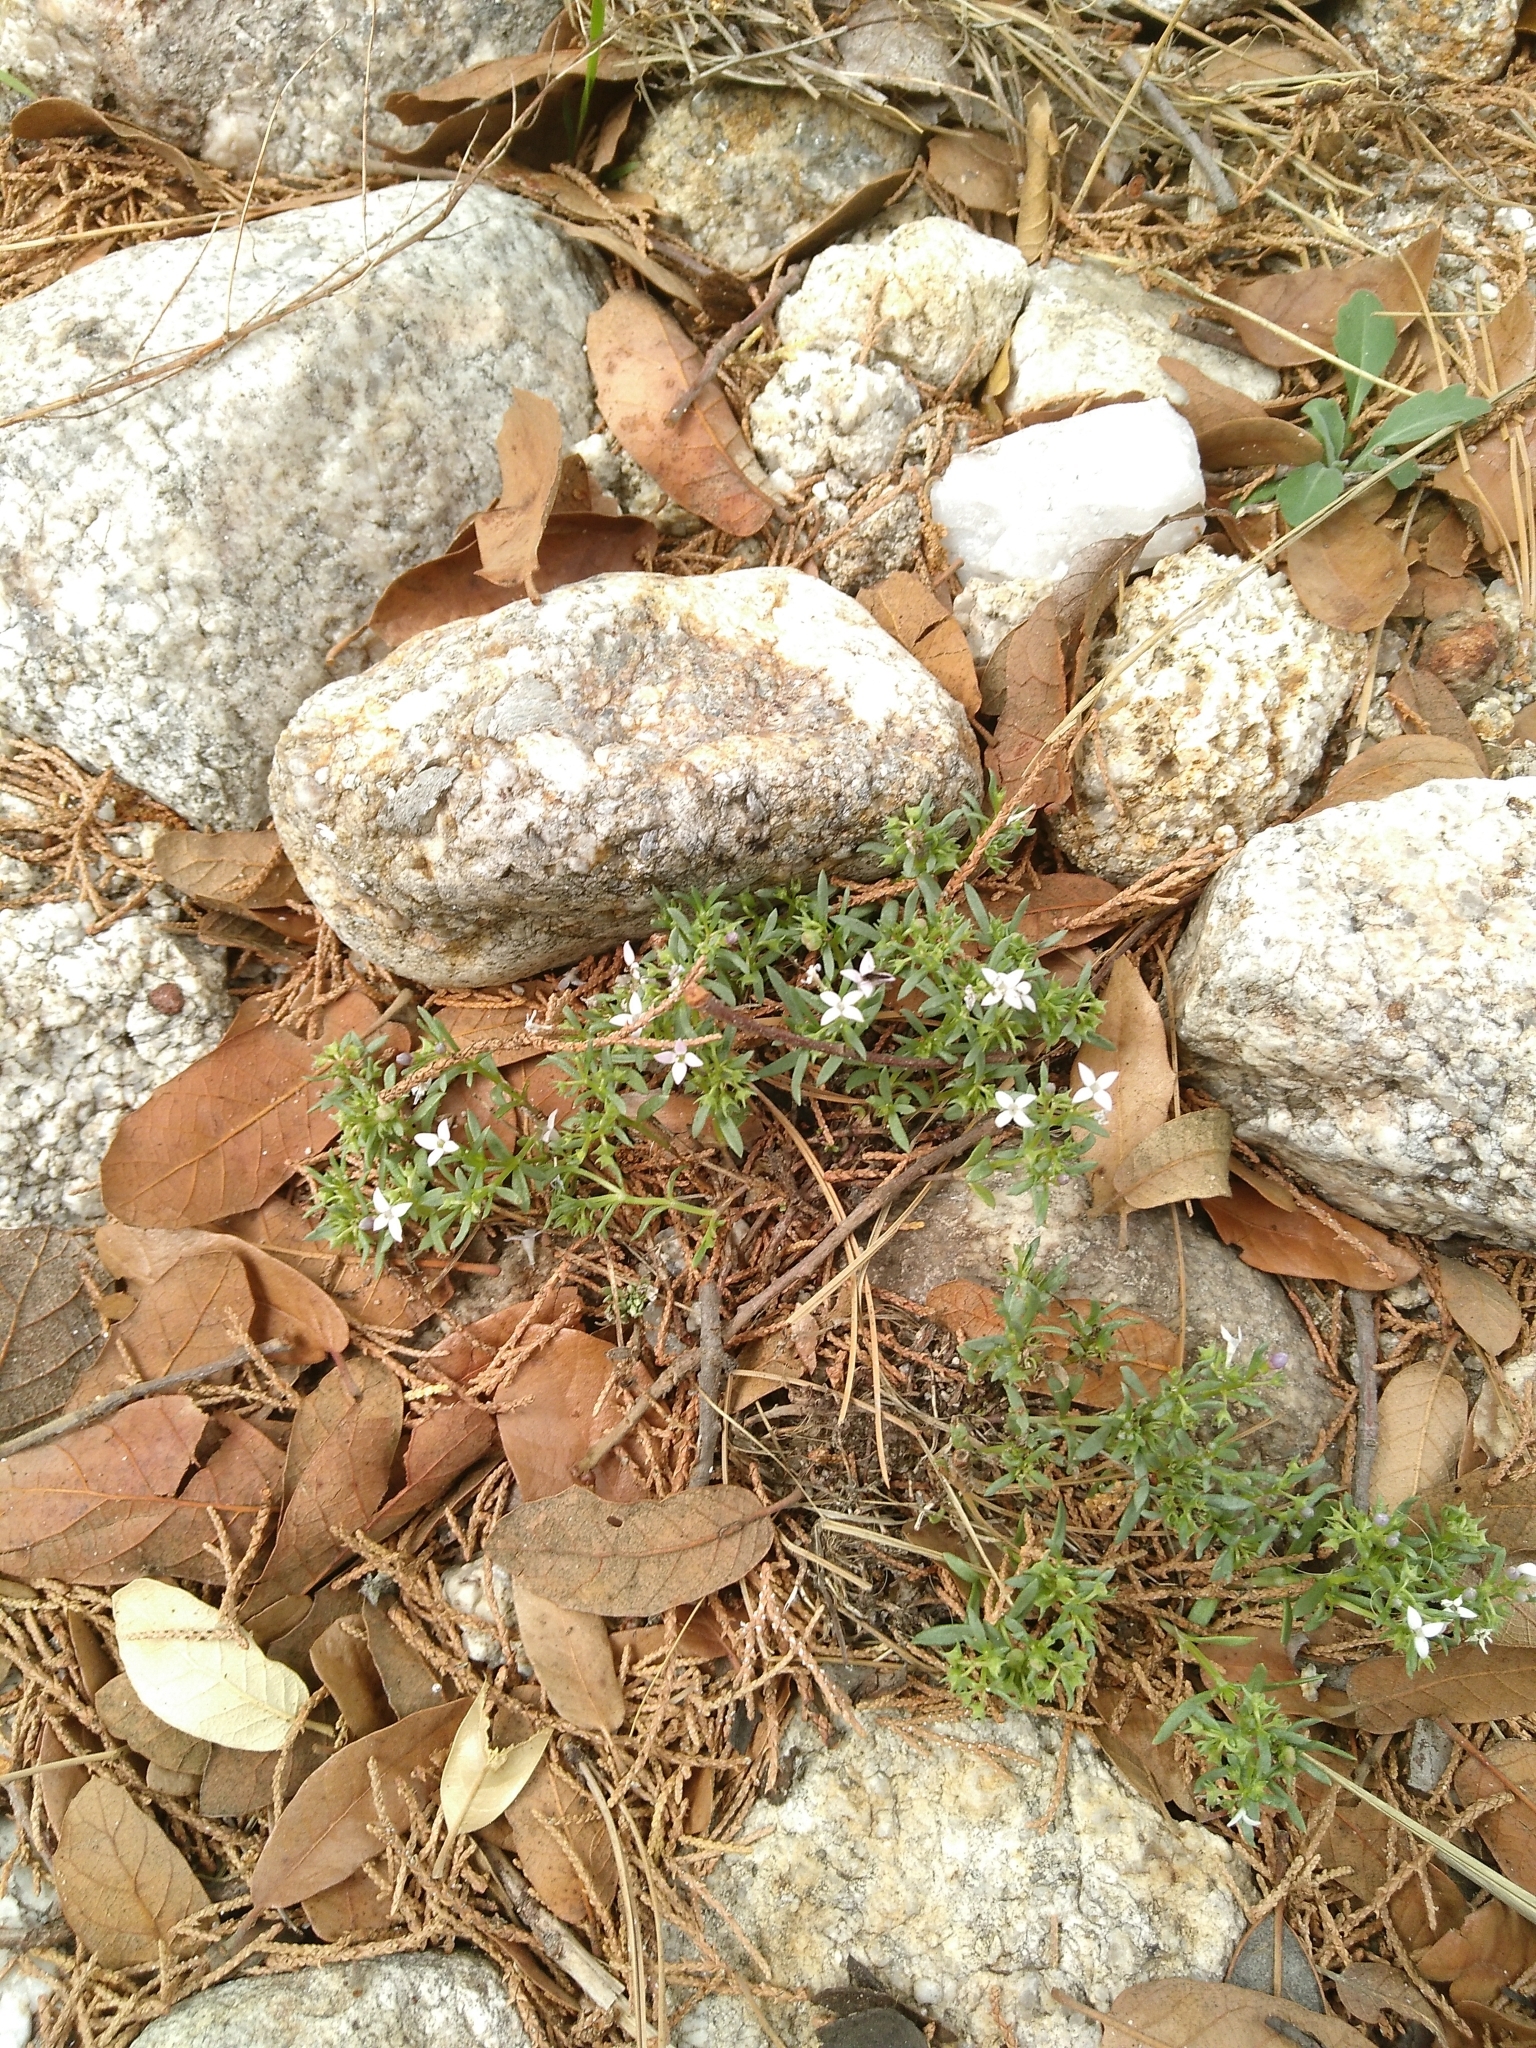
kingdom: Plantae
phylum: Tracheophyta
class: Magnoliopsida
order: Gentianales
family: Rubiaceae
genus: Houstonia
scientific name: Houstonia wrightii
